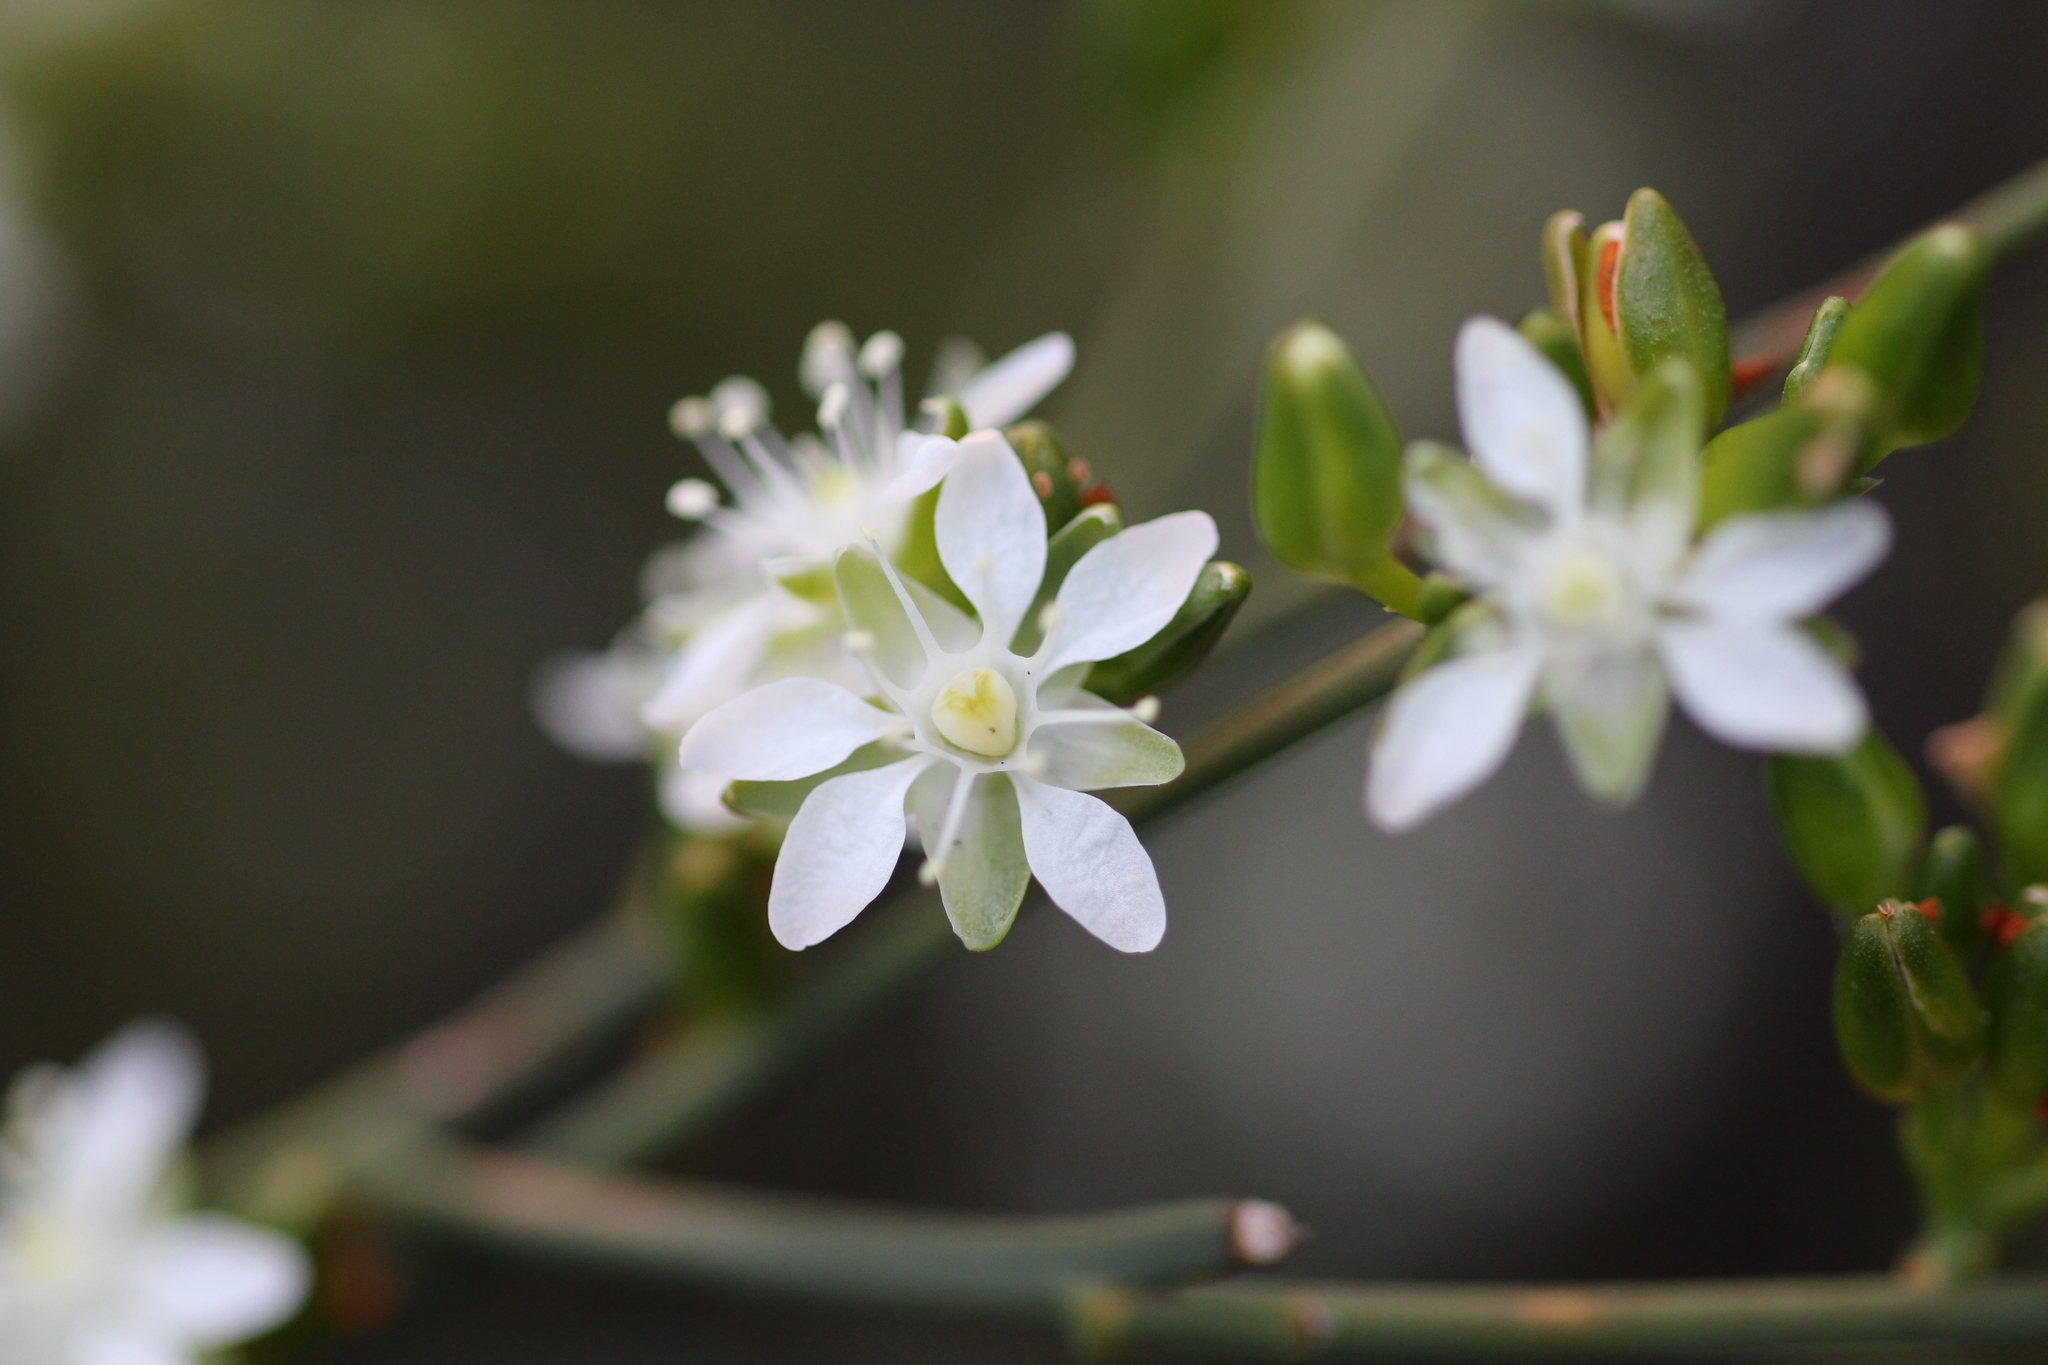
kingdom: Plantae
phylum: Tracheophyta
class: Magnoliopsida
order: Caryophyllales
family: Macarthuriaceae
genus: Macarthuria
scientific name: Macarthuria australis
